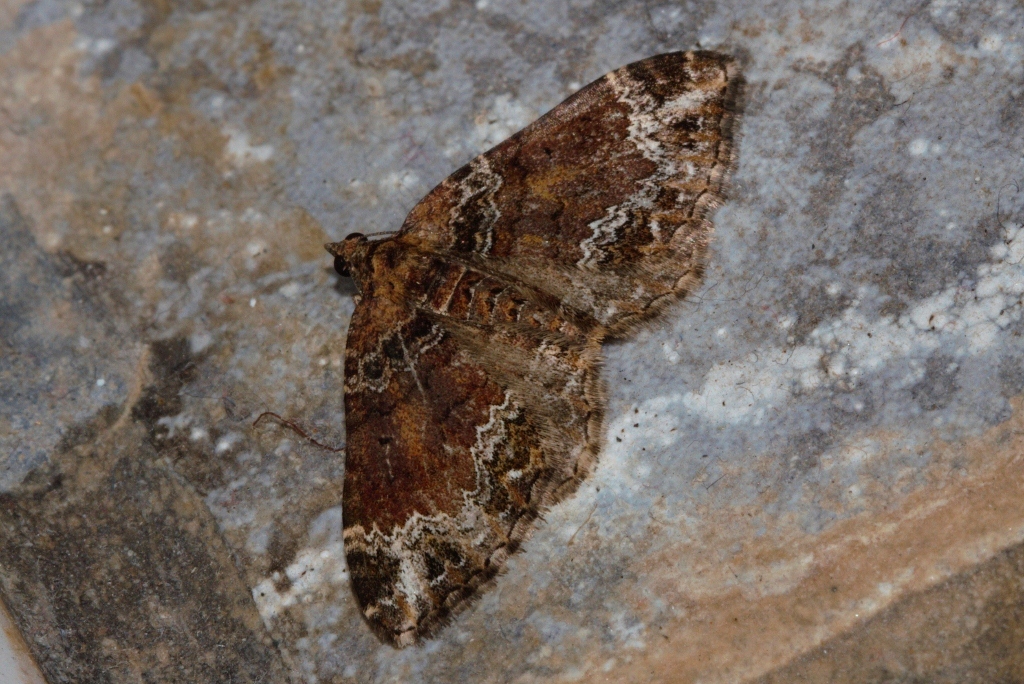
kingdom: Animalia
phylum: Arthropoda
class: Insecta
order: Lepidoptera
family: Geometridae
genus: Xanthorhoe
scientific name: Xanthorhoe exorista
